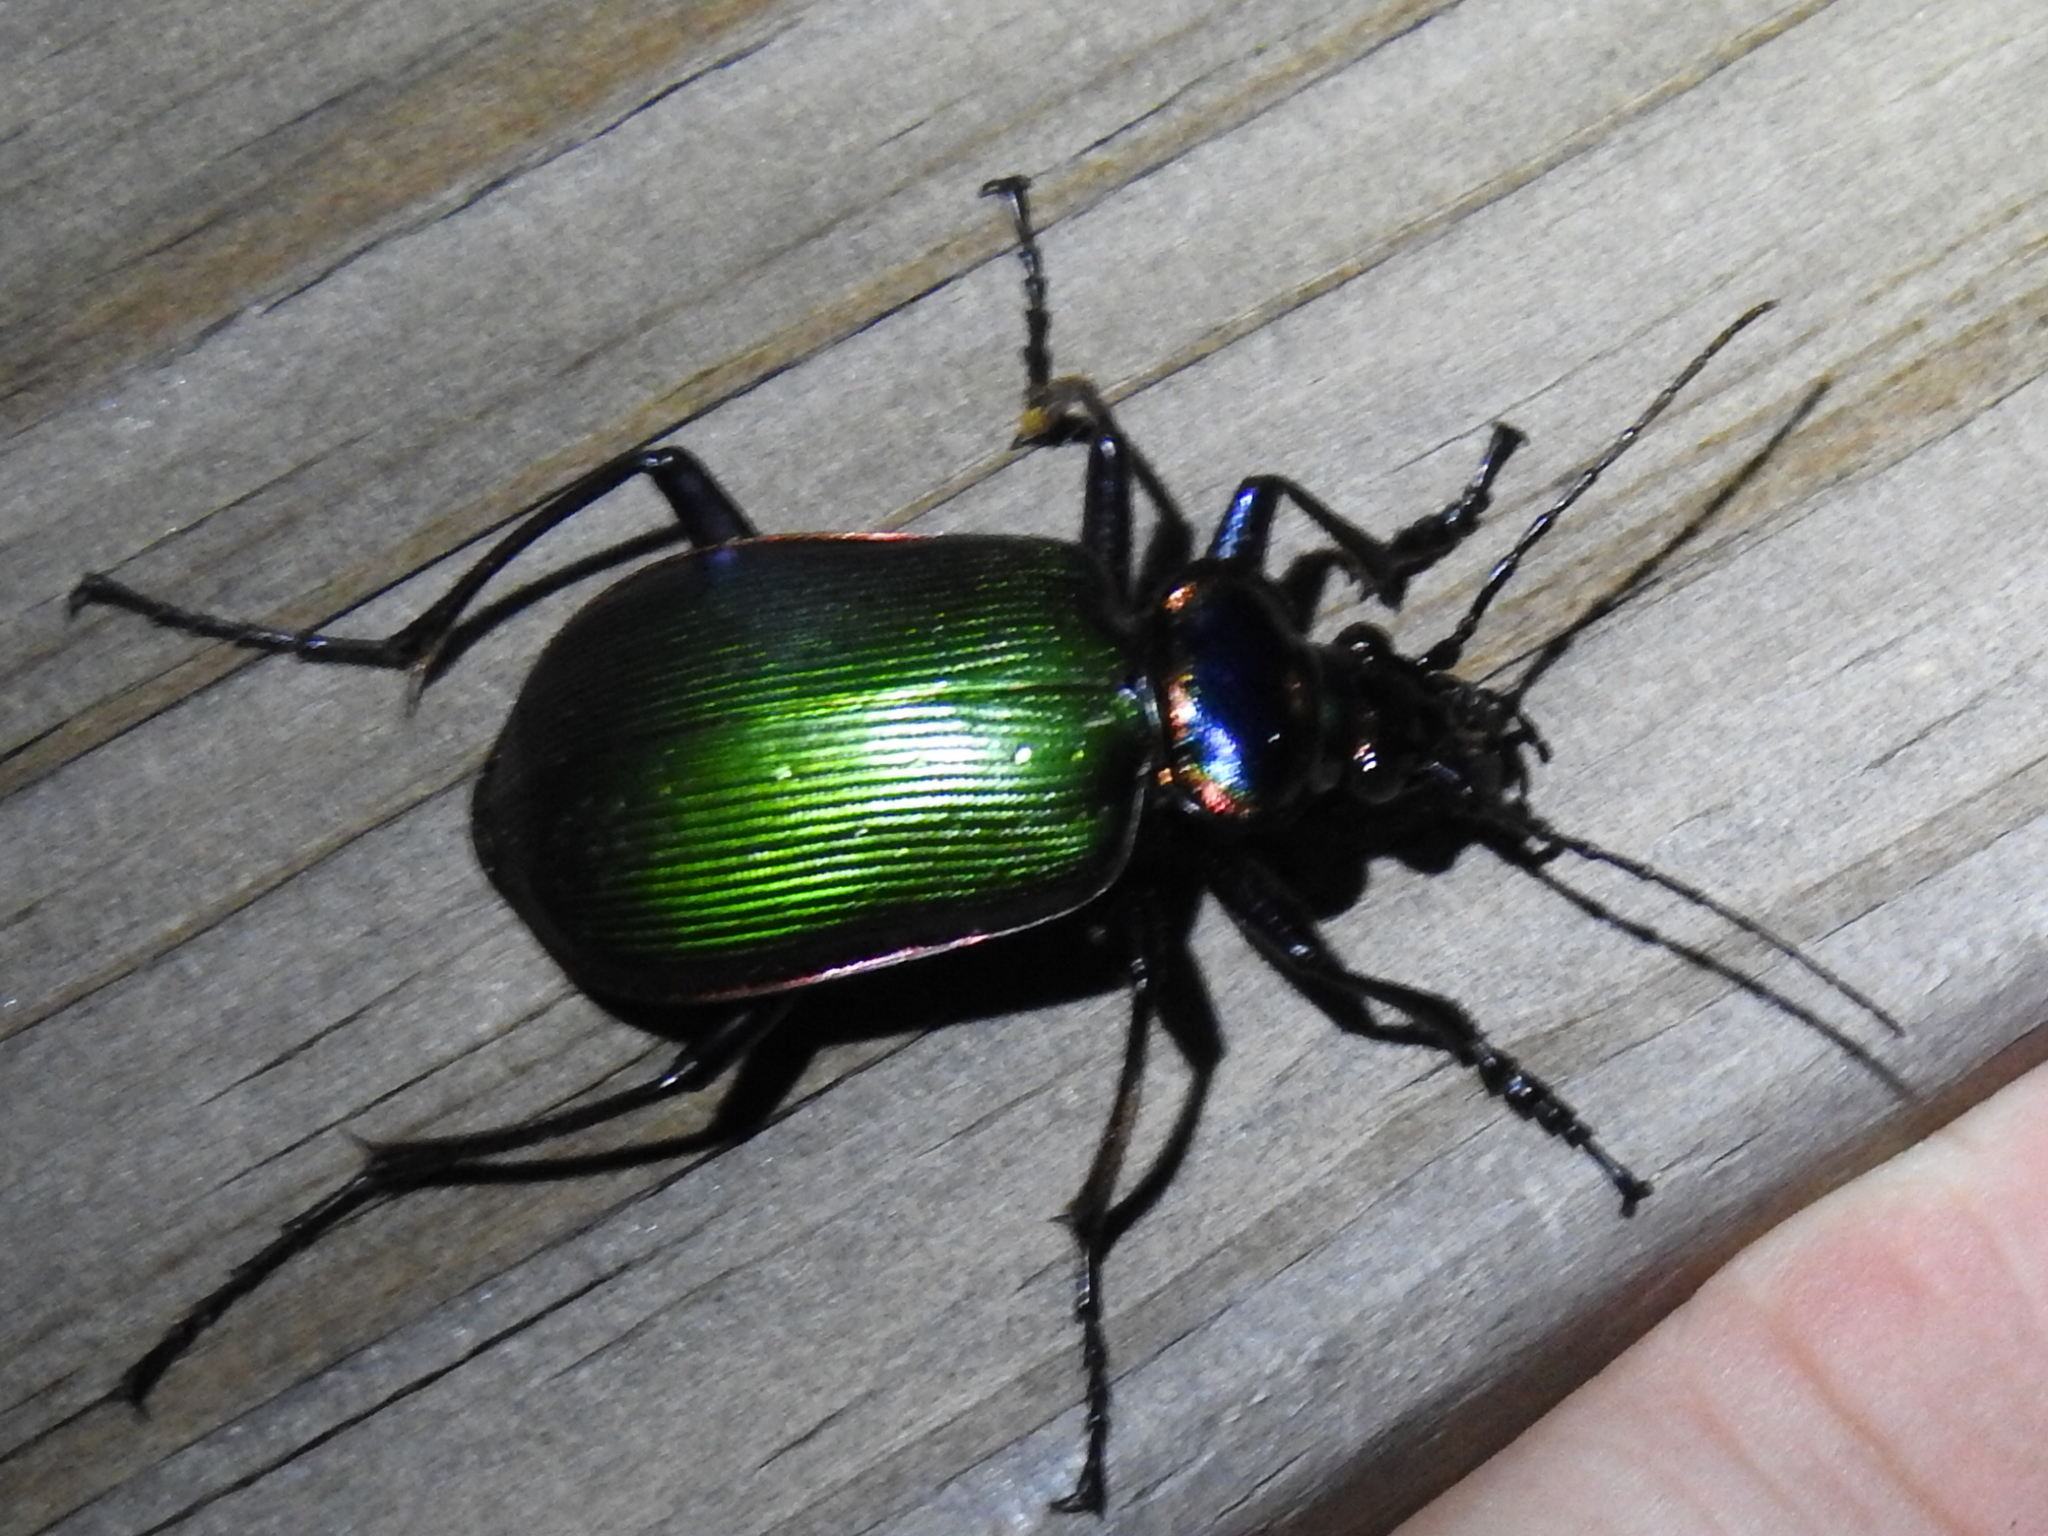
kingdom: Animalia
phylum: Arthropoda
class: Insecta
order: Coleoptera
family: Carabidae
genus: Calosoma
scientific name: Calosoma scrutator
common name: Fiery searcher beetle
